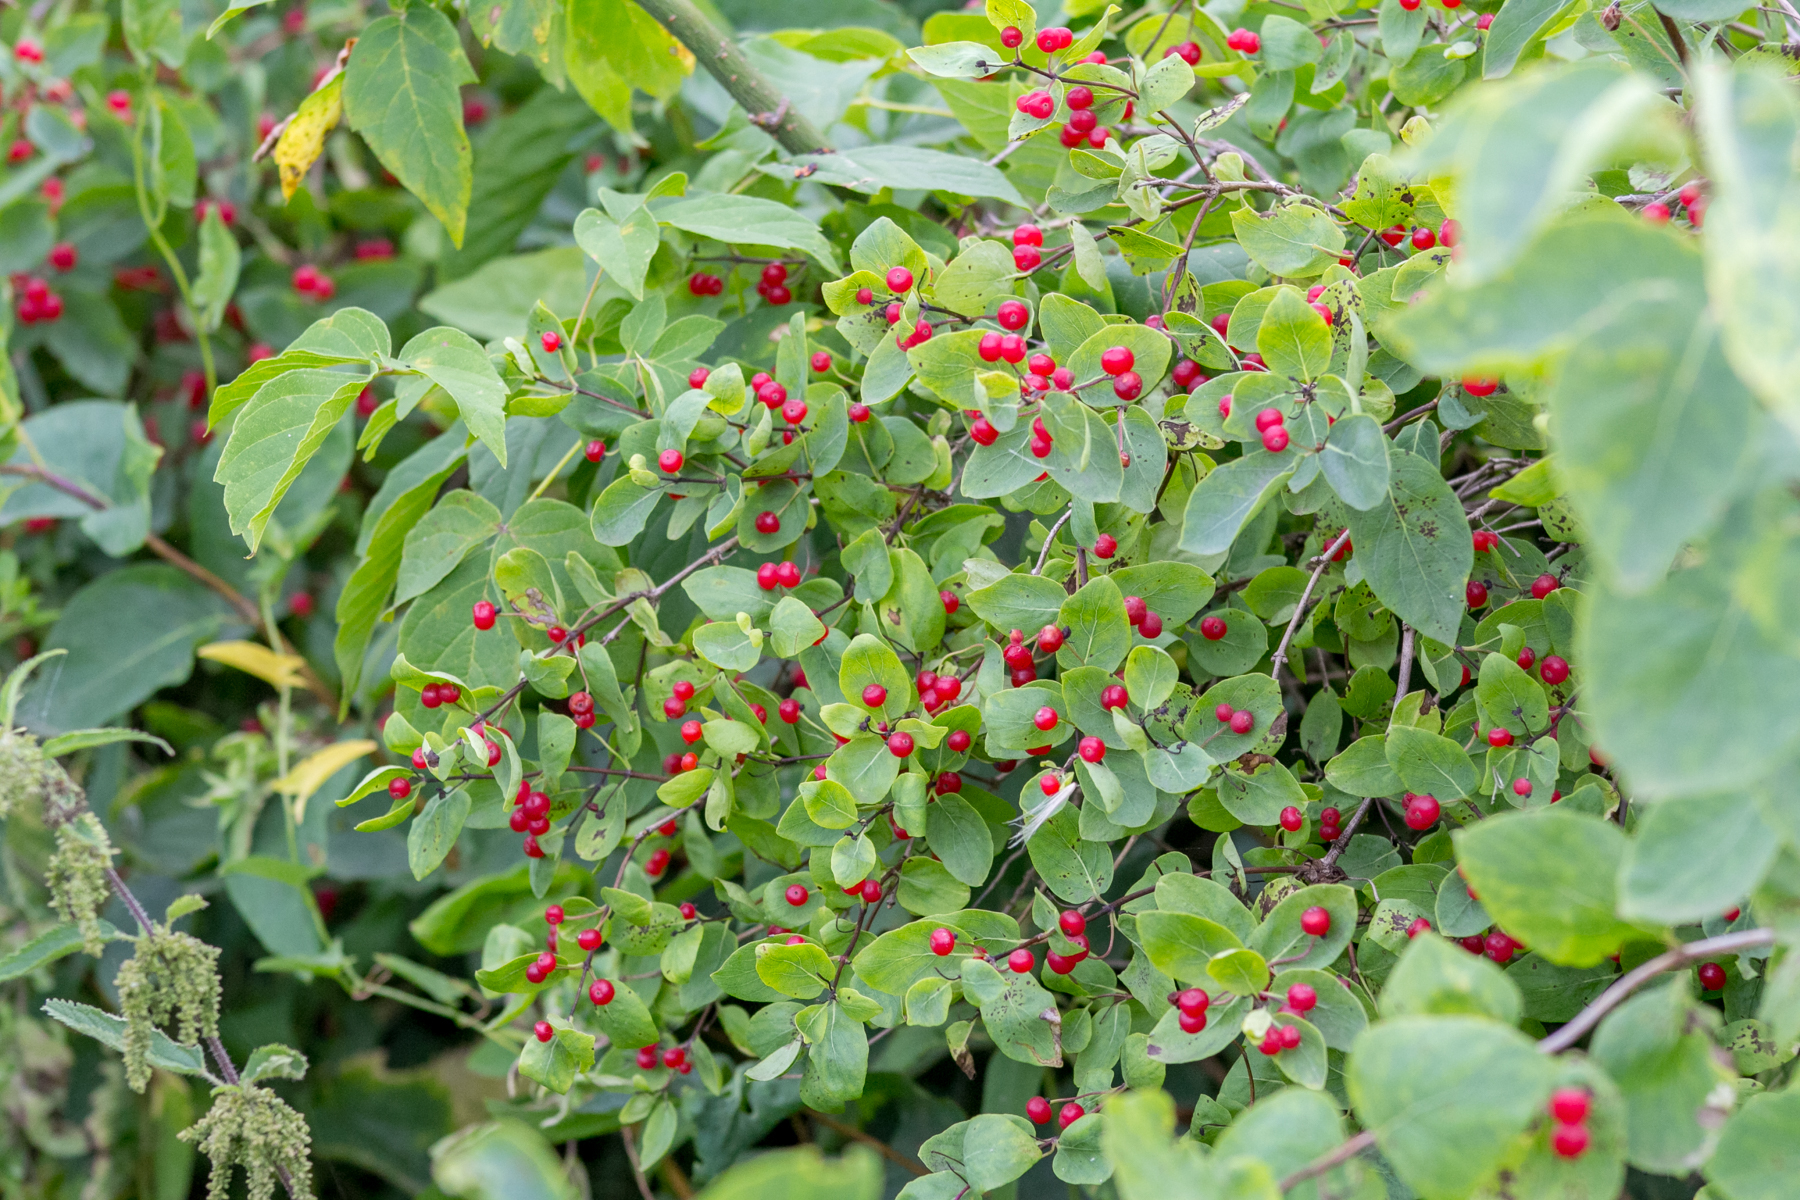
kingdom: Plantae
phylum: Tracheophyta
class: Magnoliopsida
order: Dipsacales
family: Caprifoliaceae
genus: Lonicera
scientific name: Lonicera tatarica
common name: Tatarian honeysuckle
